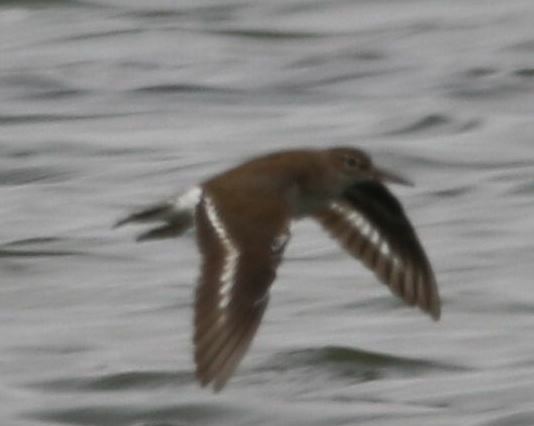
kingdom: Animalia
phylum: Chordata
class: Aves
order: Charadriiformes
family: Scolopacidae
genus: Actitis
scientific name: Actitis hypoleucos
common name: Common sandpiper
